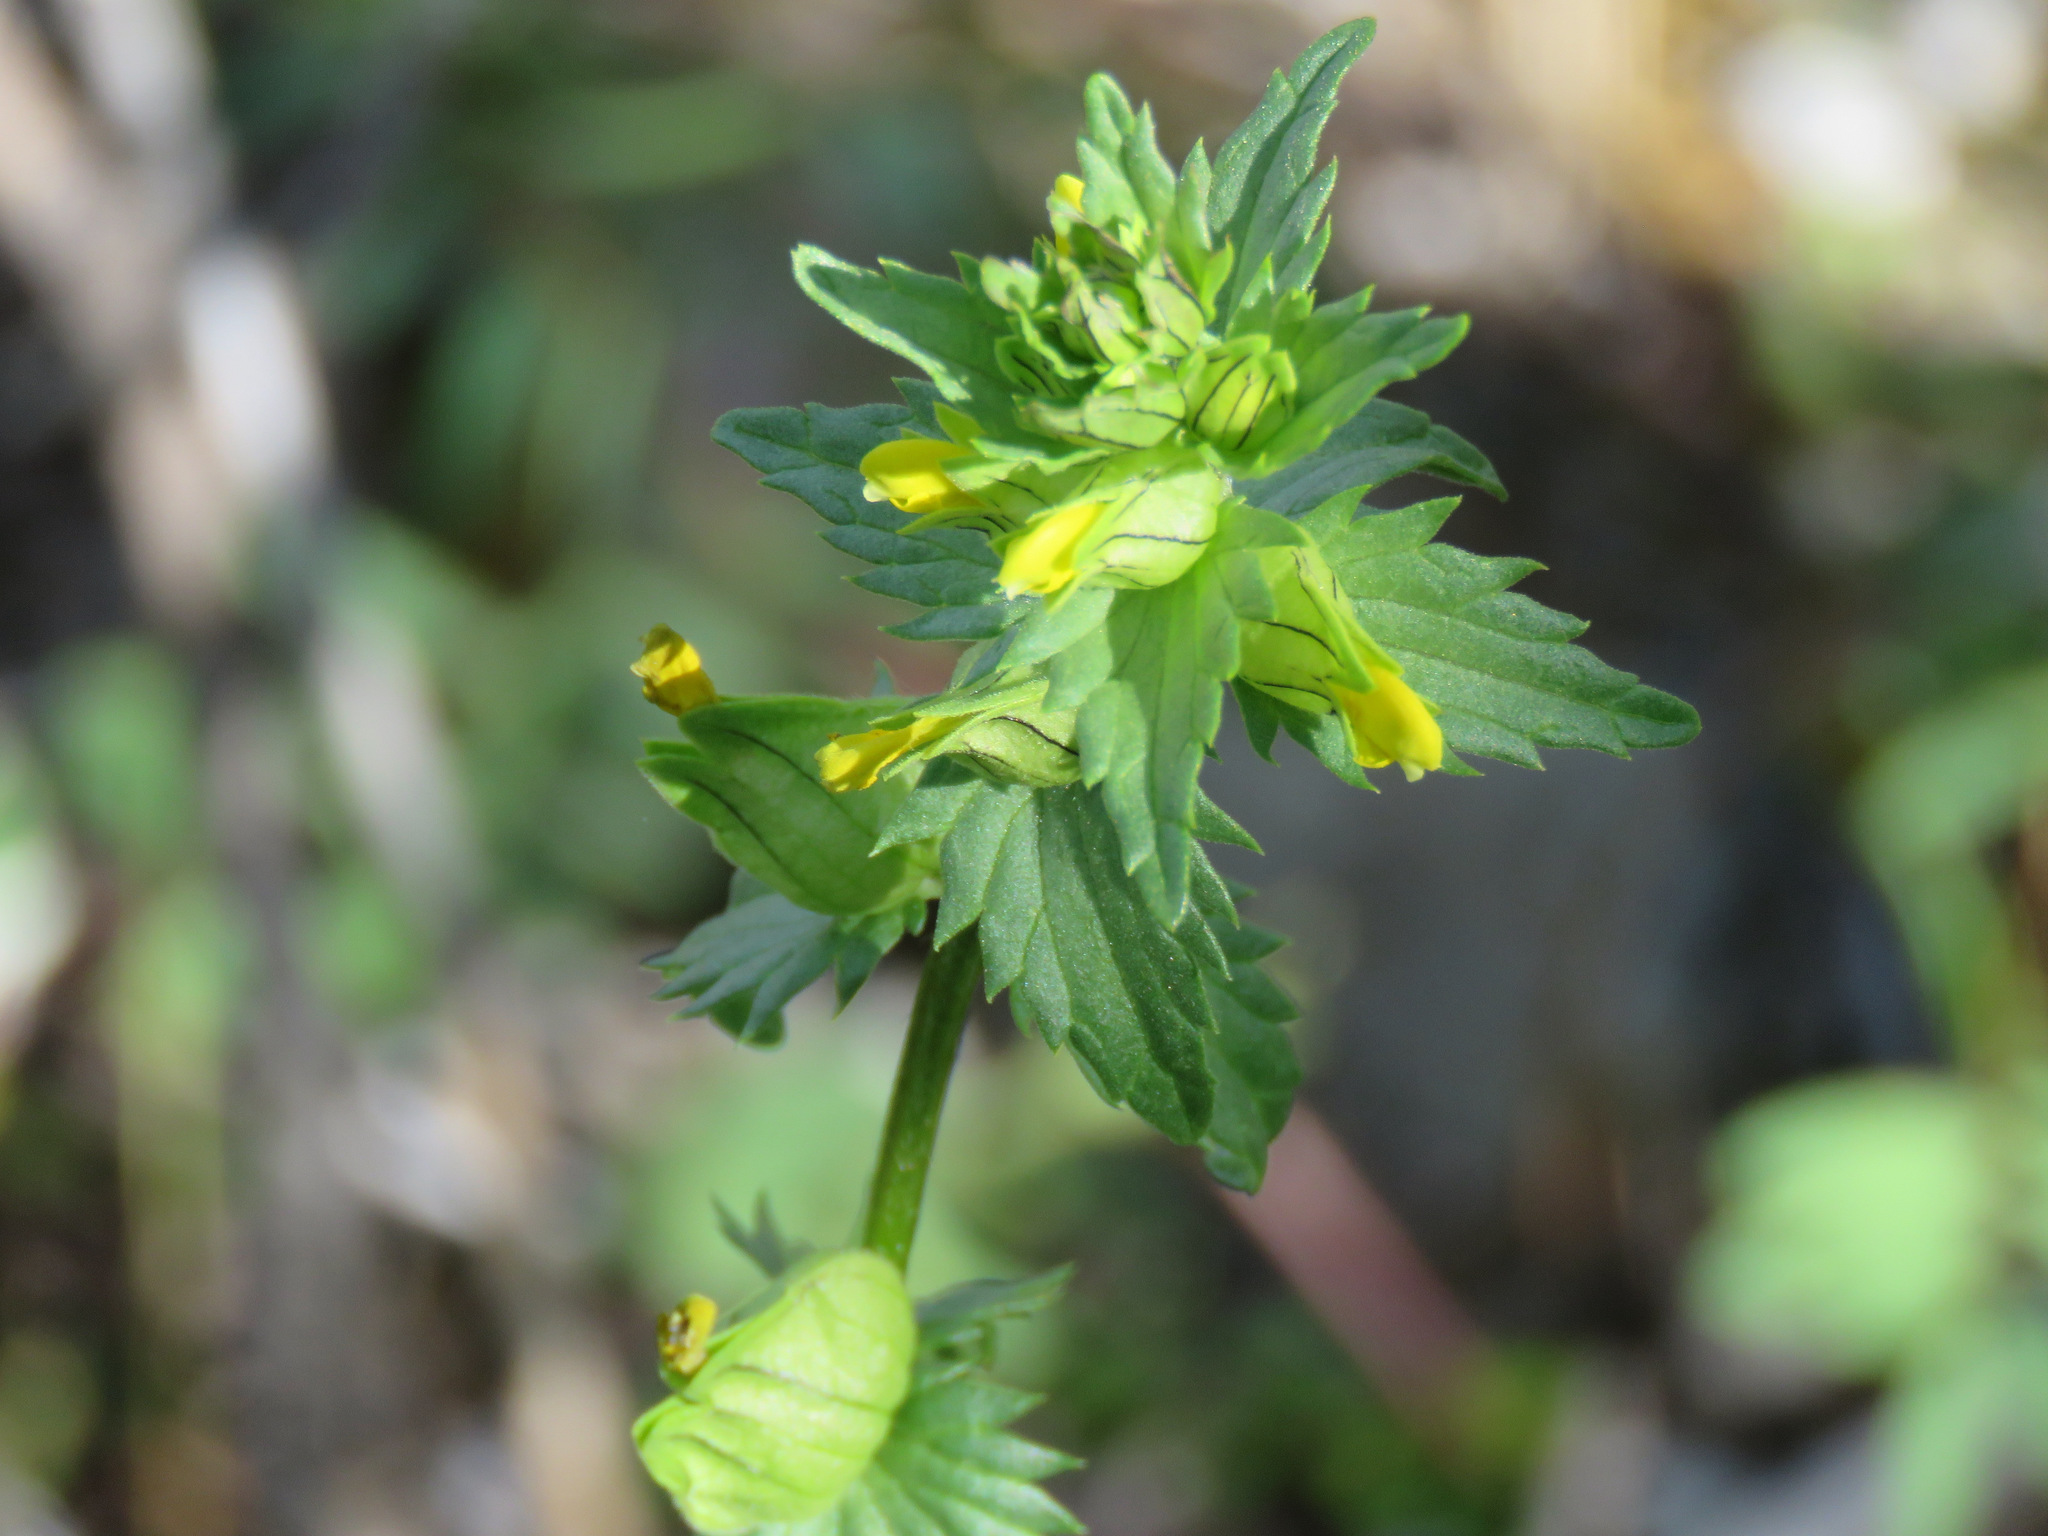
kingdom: Plantae
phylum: Tracheophyta
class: Magnoliopsida
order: Lamiales
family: Orobanchaceae
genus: Rhinanthus
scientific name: Rhinanthus groenlandicus
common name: Little yellow rattle
